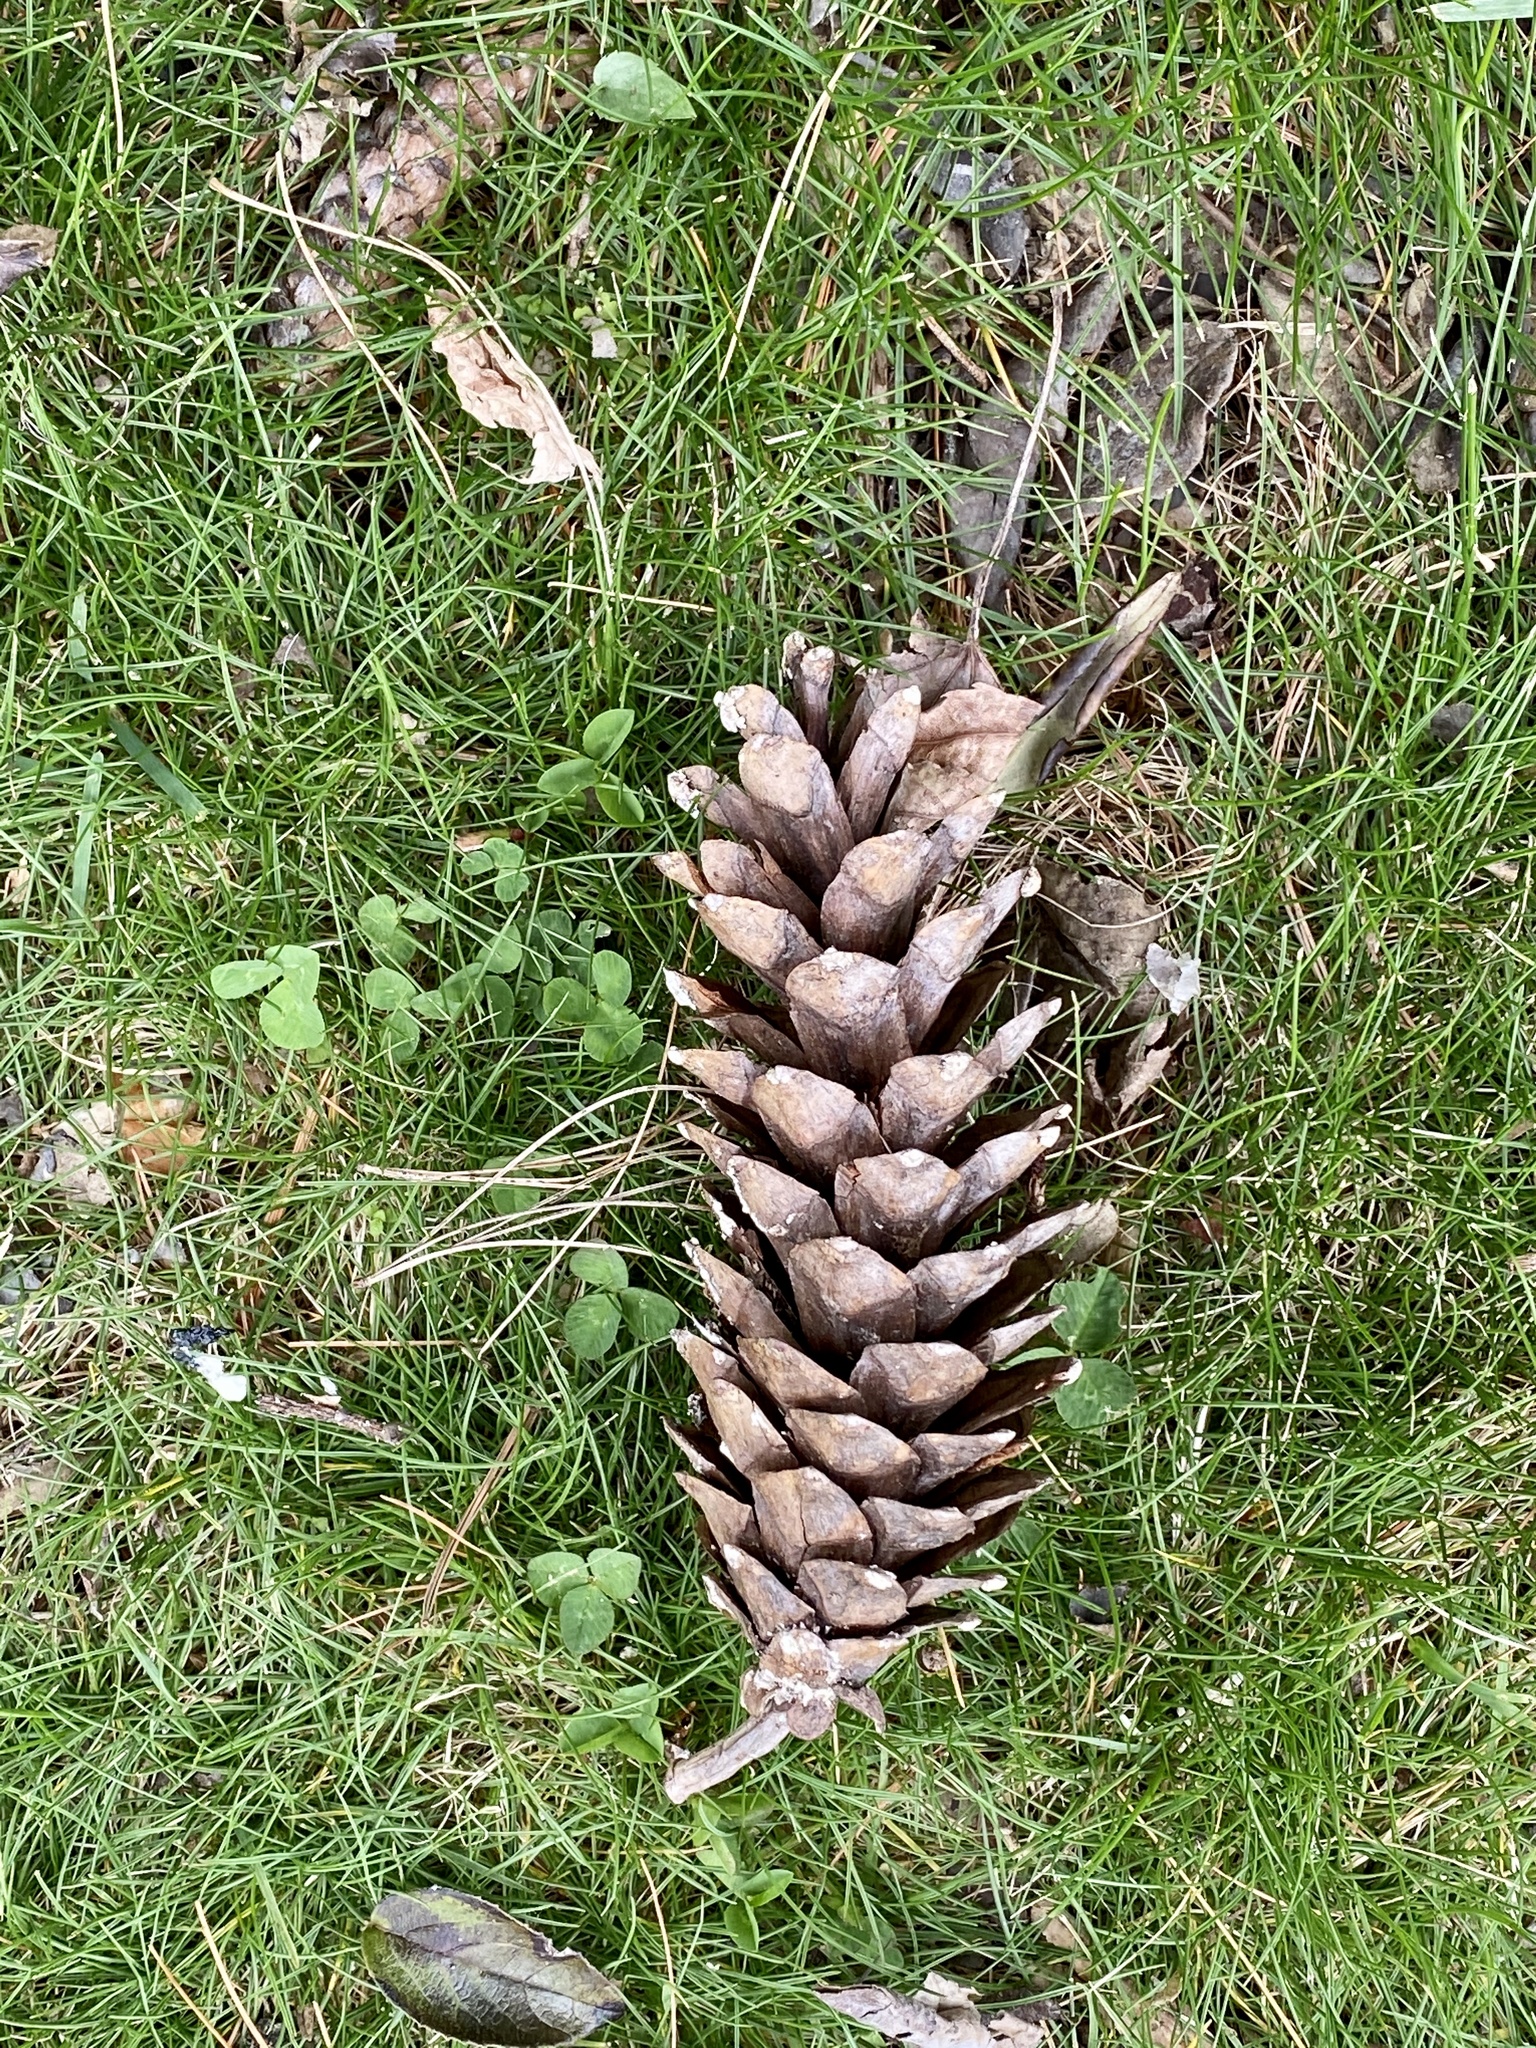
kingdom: Plantae
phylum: Tracheophyta
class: Pinopsida
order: Pinales
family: Pinaceae
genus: Pinus
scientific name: Pinus strobus
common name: Weymouth pine
